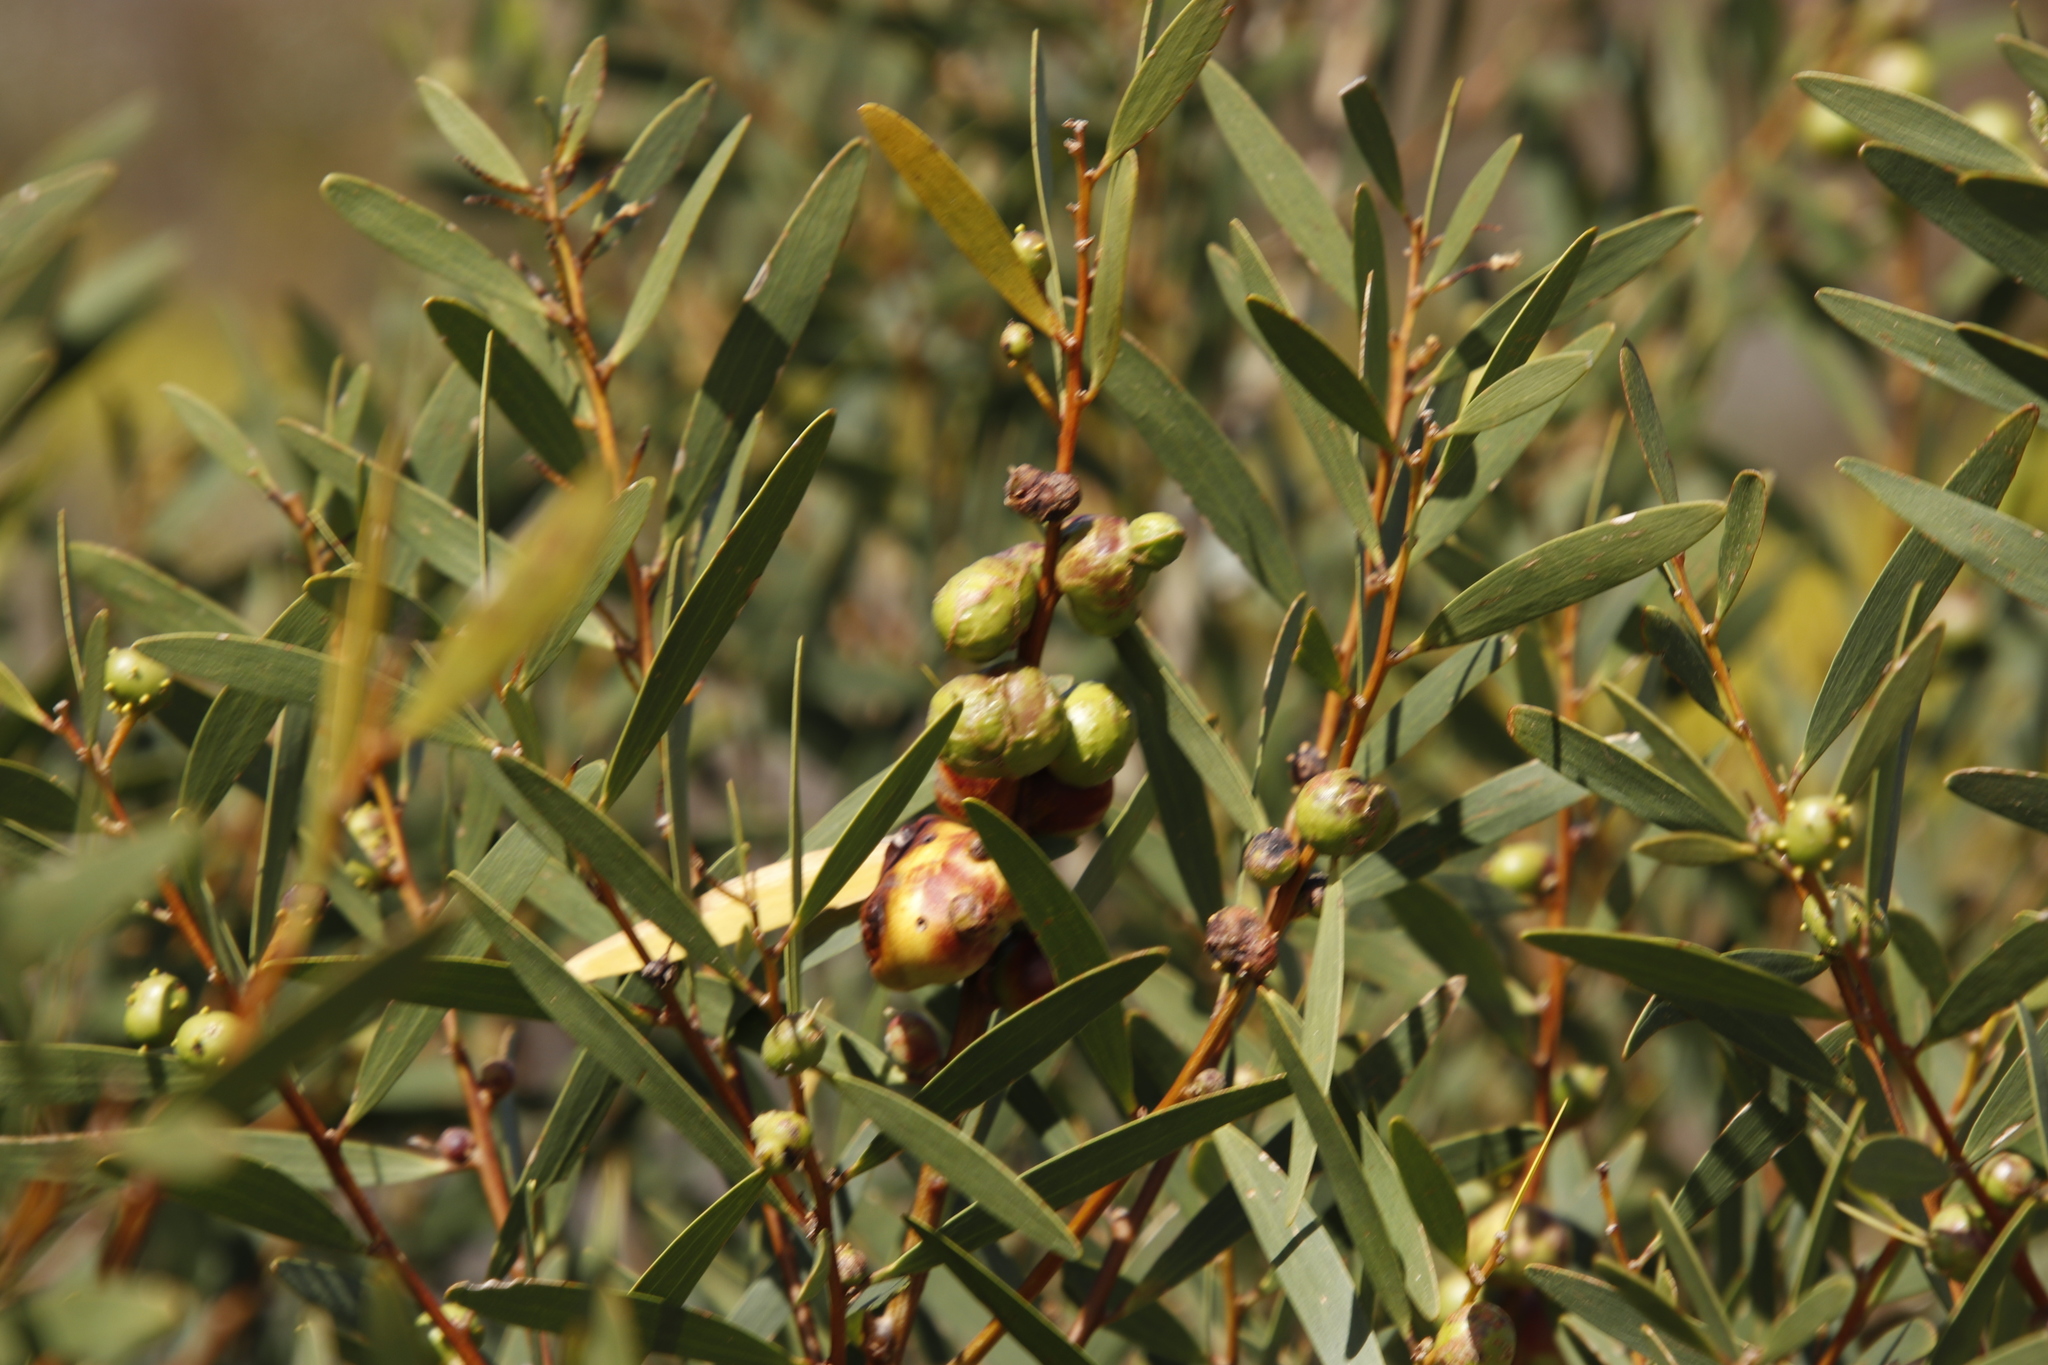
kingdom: Plantae
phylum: Tracheophyta
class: Magnoliopsida
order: Fabales
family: Fabaceae
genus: Acacia
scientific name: Acacia longifolia
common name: Sydney golden wattle
